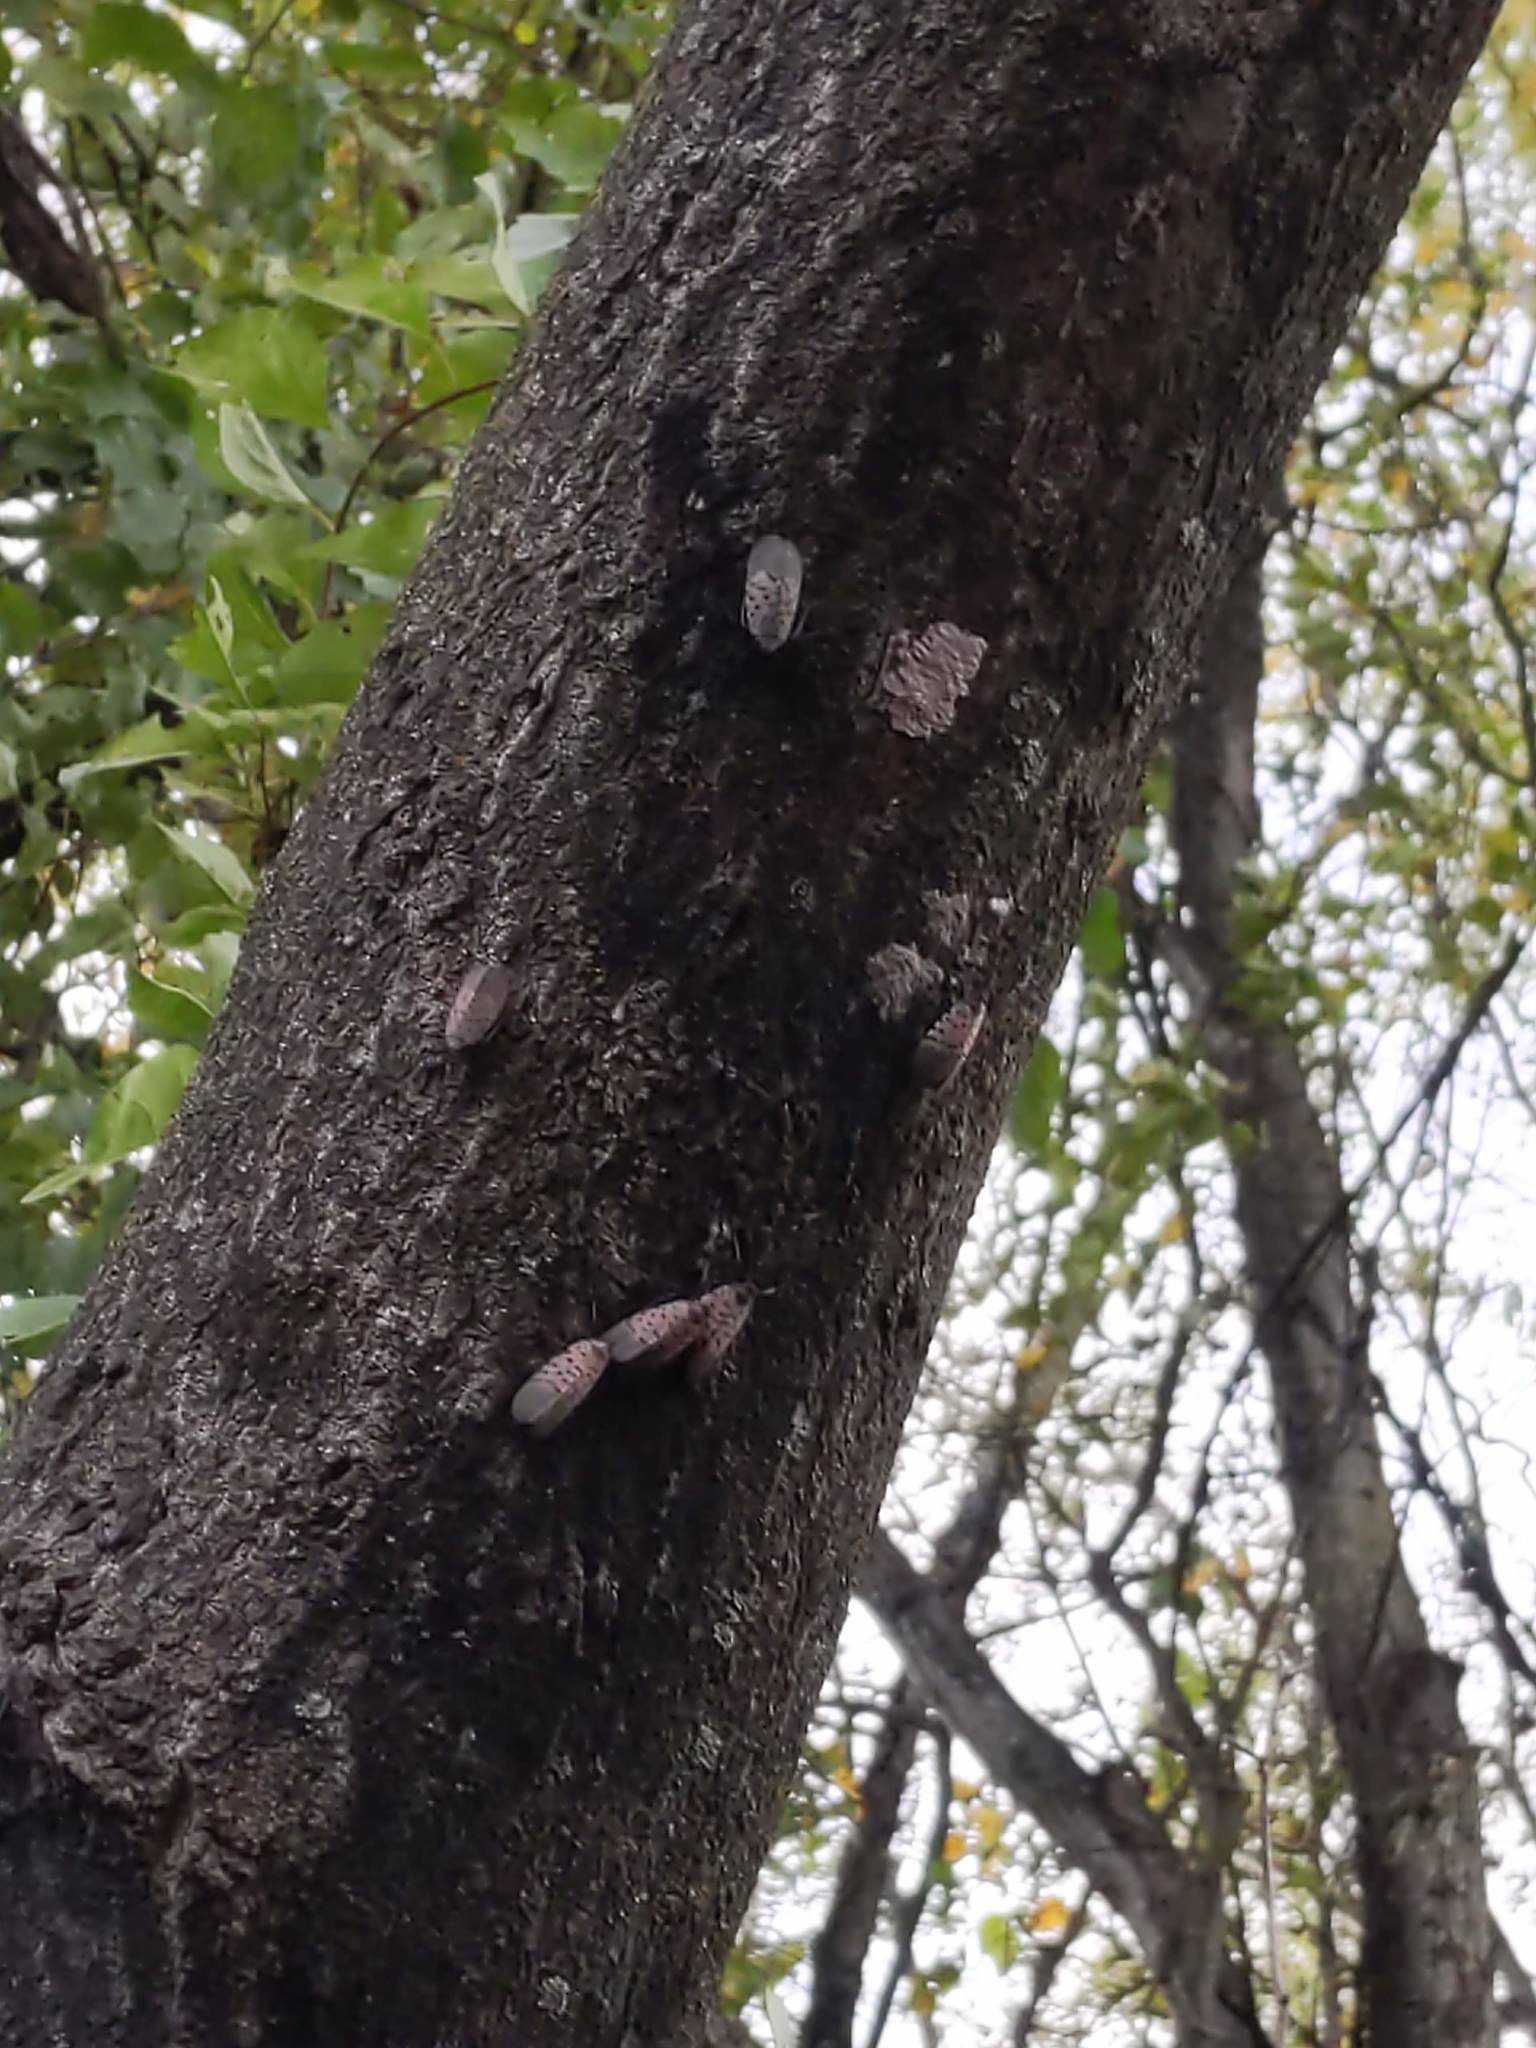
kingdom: Animalia
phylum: Arthropoda
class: Insecta
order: Hemiptera
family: Fulgoridae
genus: Lycorma
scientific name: Lycorma delicatula
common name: Spotted lanternfly
